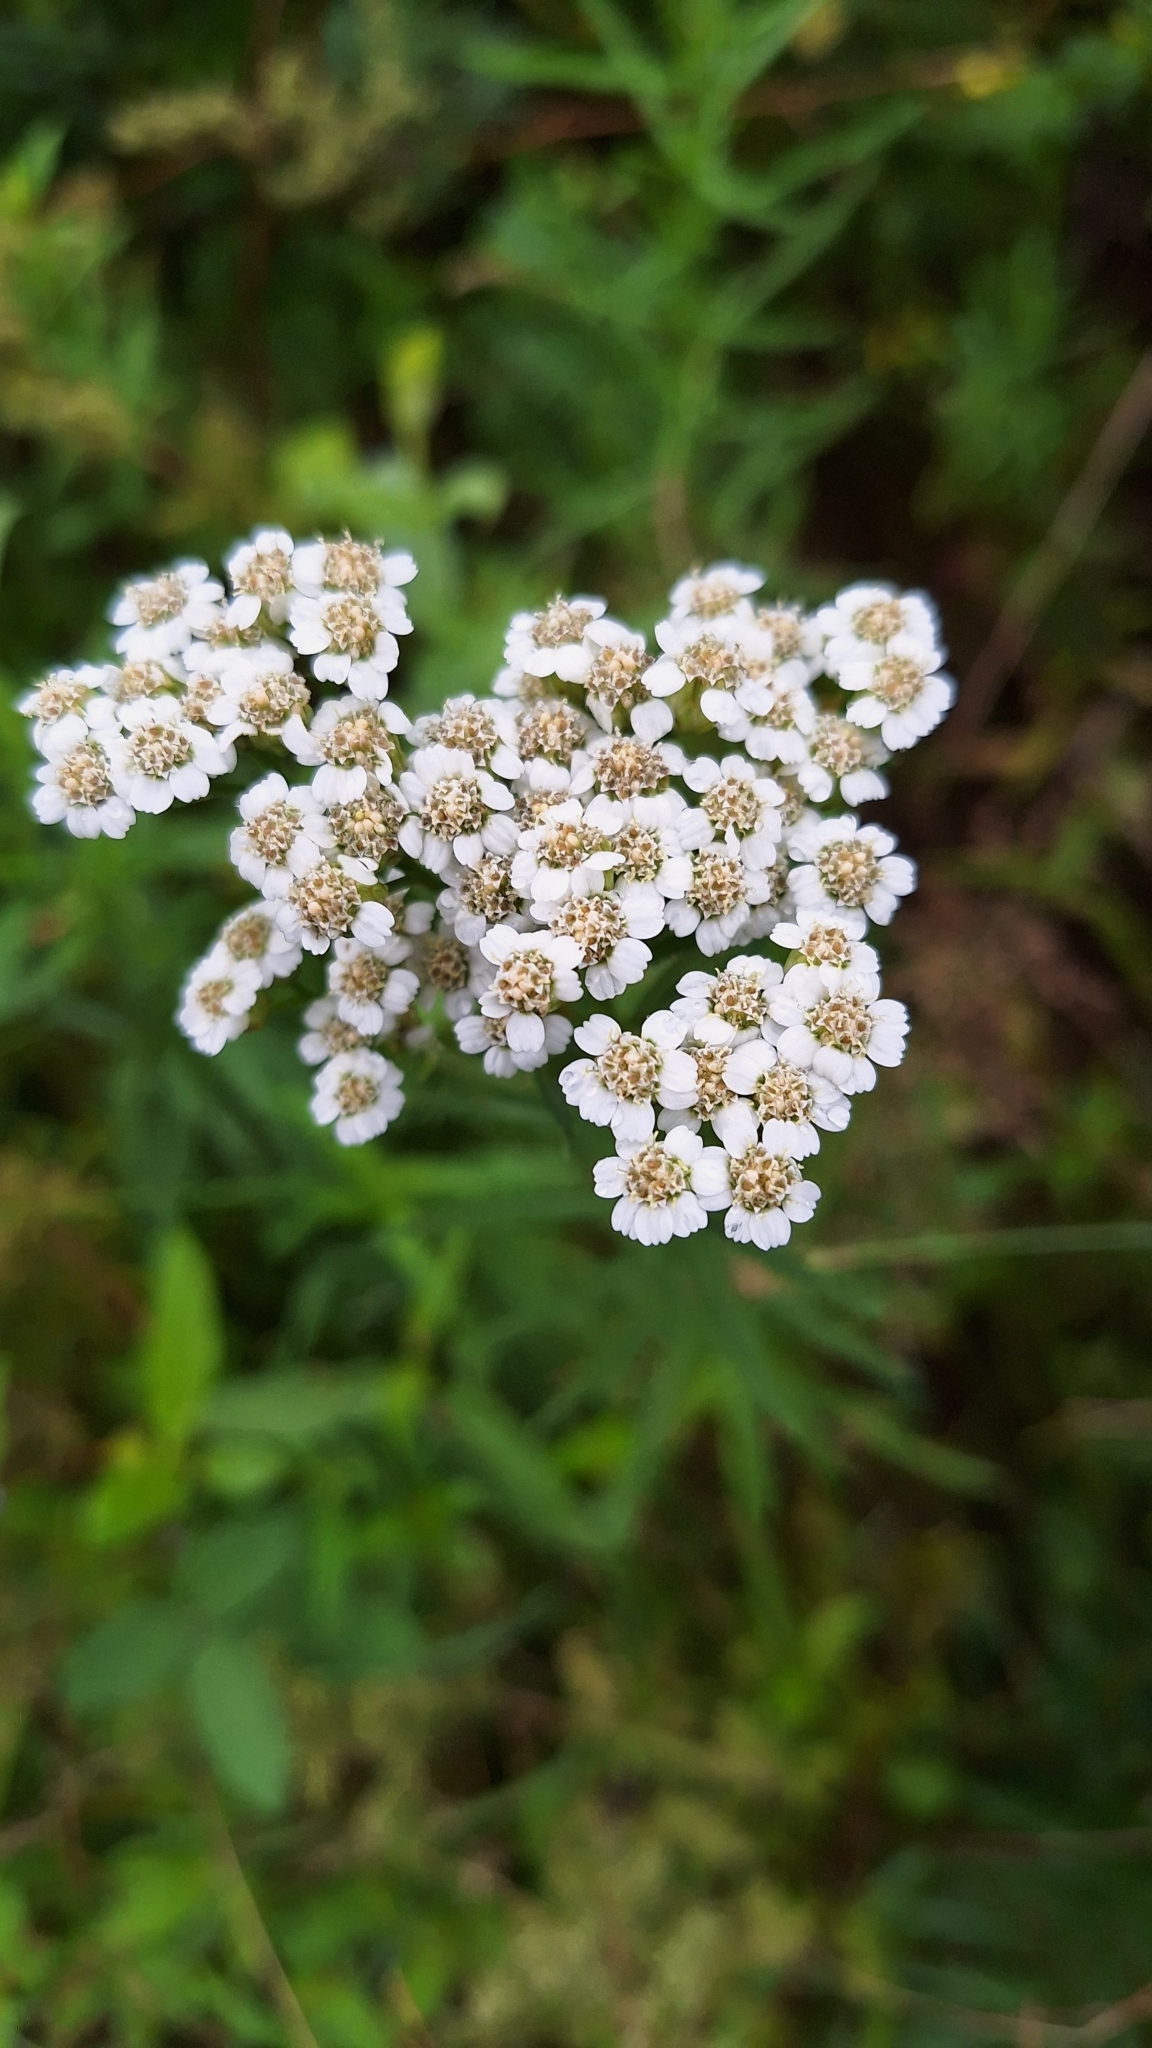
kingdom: Plantae
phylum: Tracheophyta
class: Magnoliopsida
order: Asterales
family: Asteraceae
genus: Achillea
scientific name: Achillea ptarmicoides
